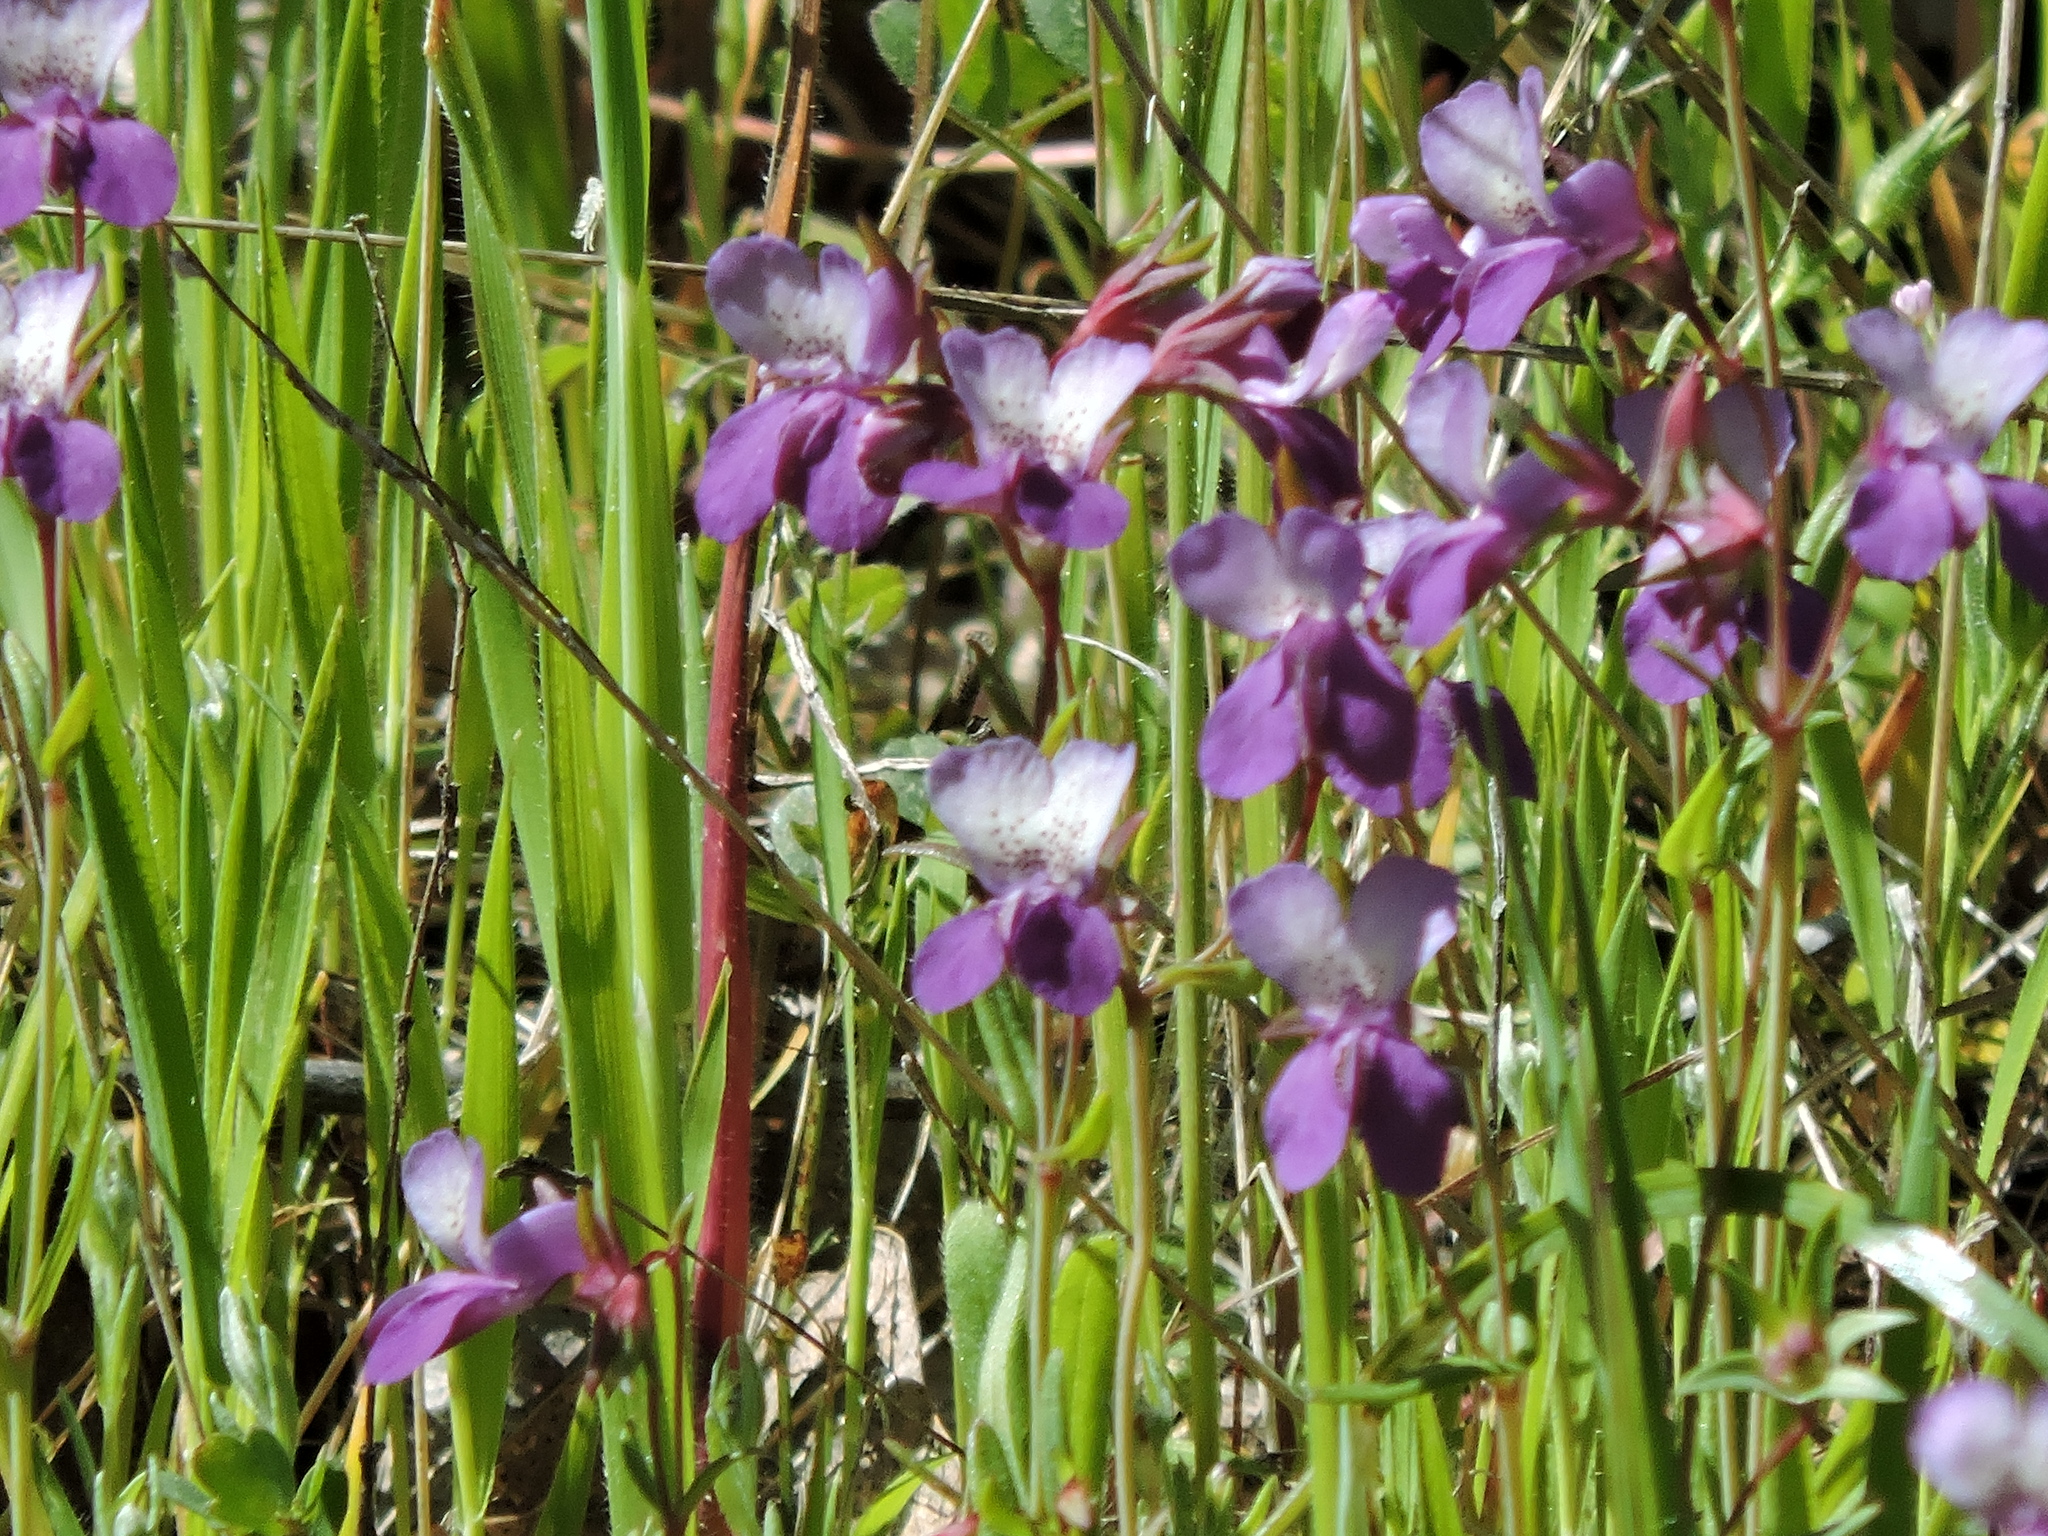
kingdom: Plantae
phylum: Tracheophyta
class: Magnoliopsida
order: Lamiales
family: Plantaginaceae
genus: Collinsia
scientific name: Collinsia sparsiflora
